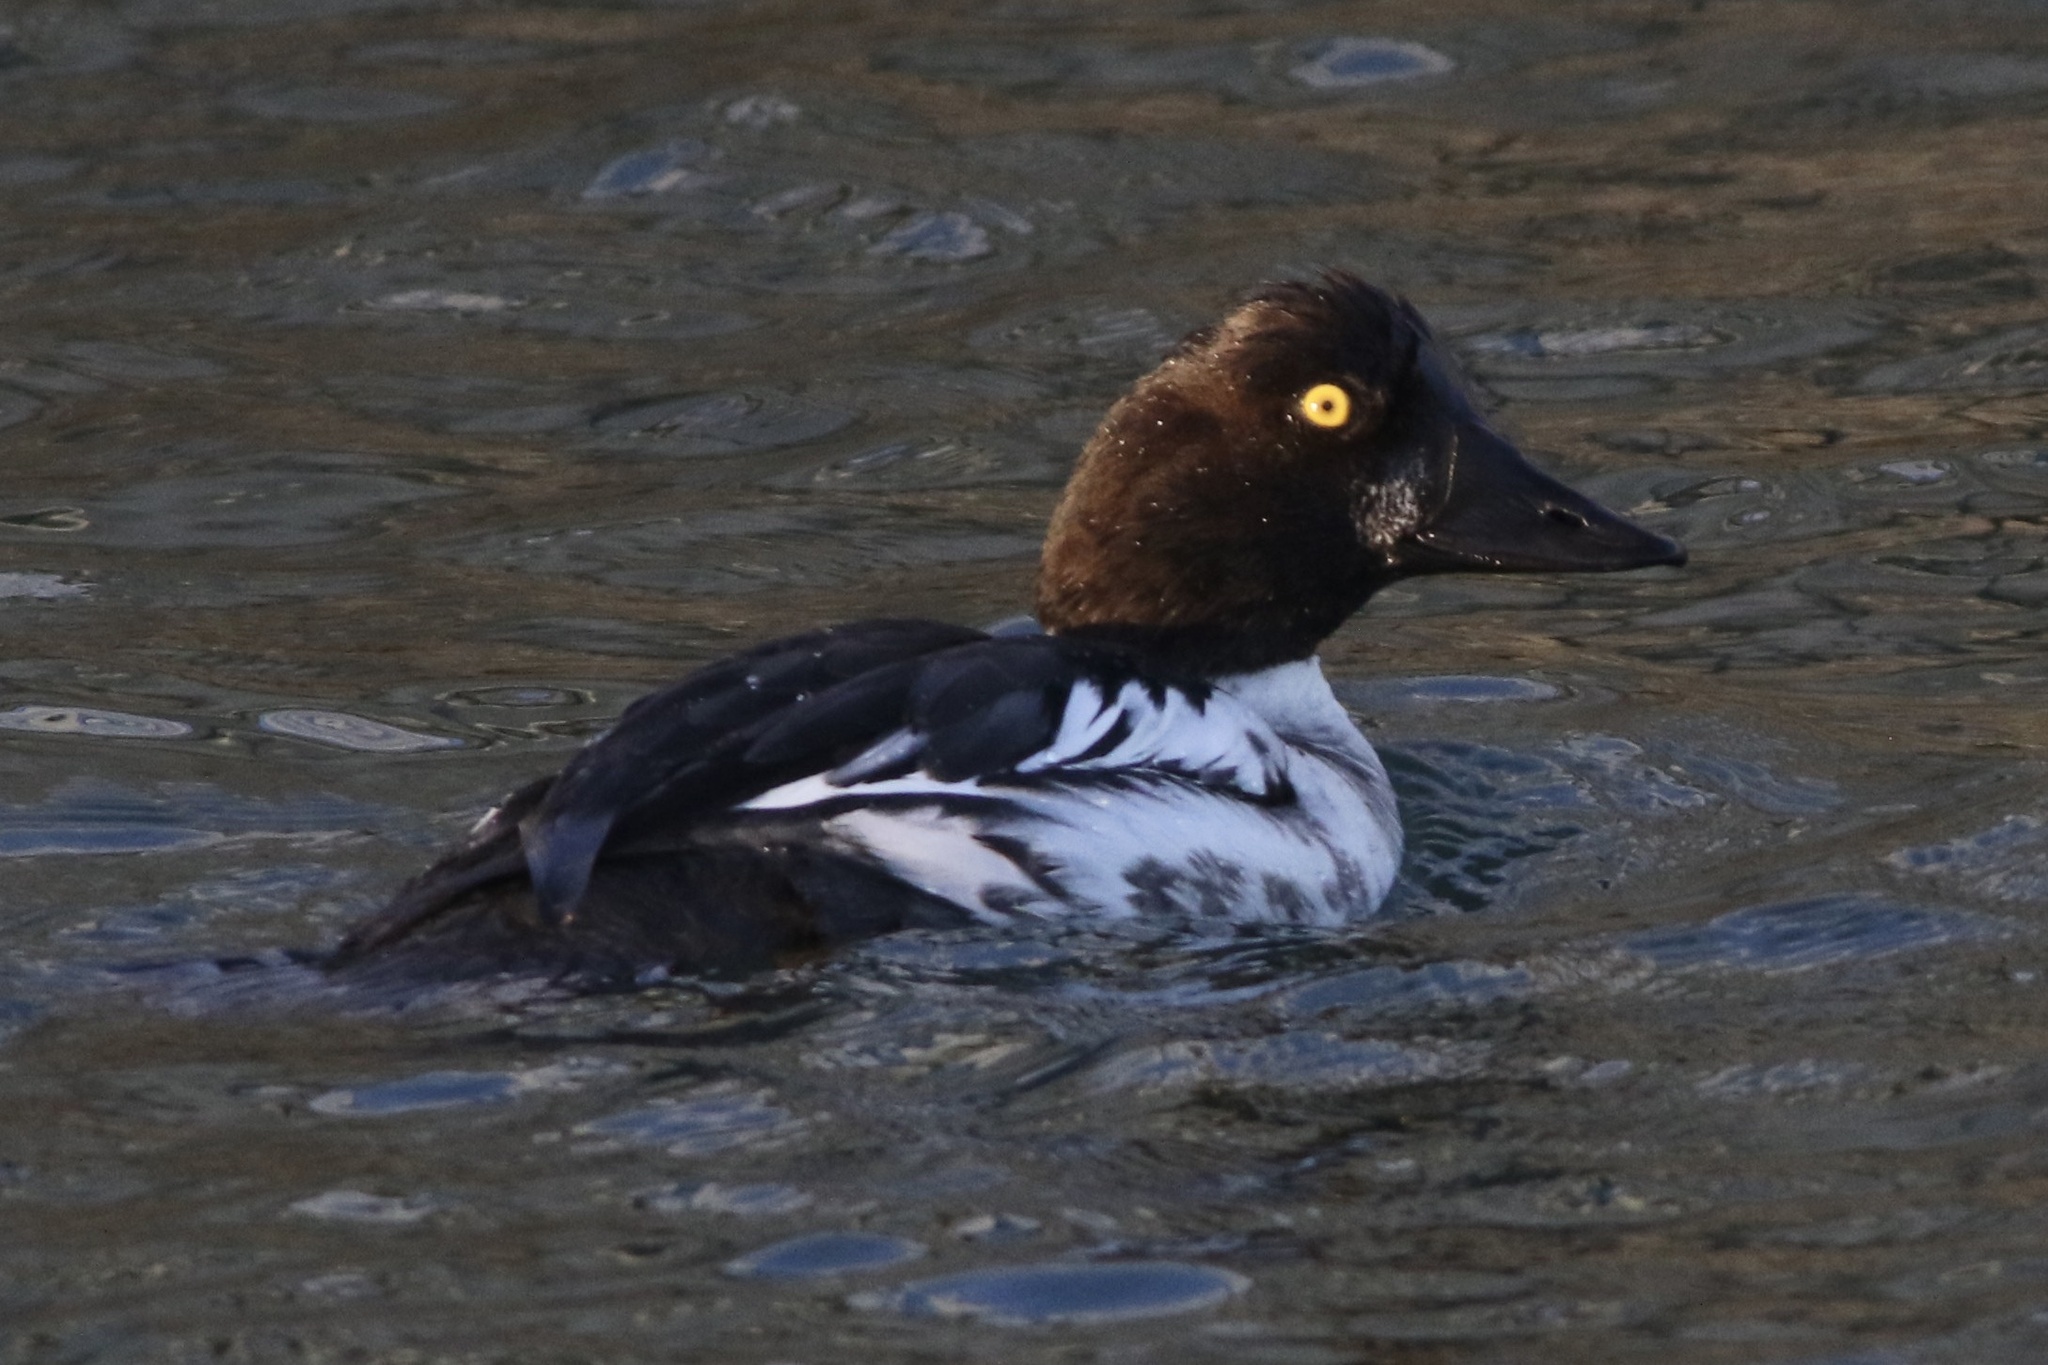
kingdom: Animalia
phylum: Chordata
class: Aves
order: Anseriformes
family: Anatidae
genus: Bucephala
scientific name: Bucephala clangula
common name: Common goldeneye
